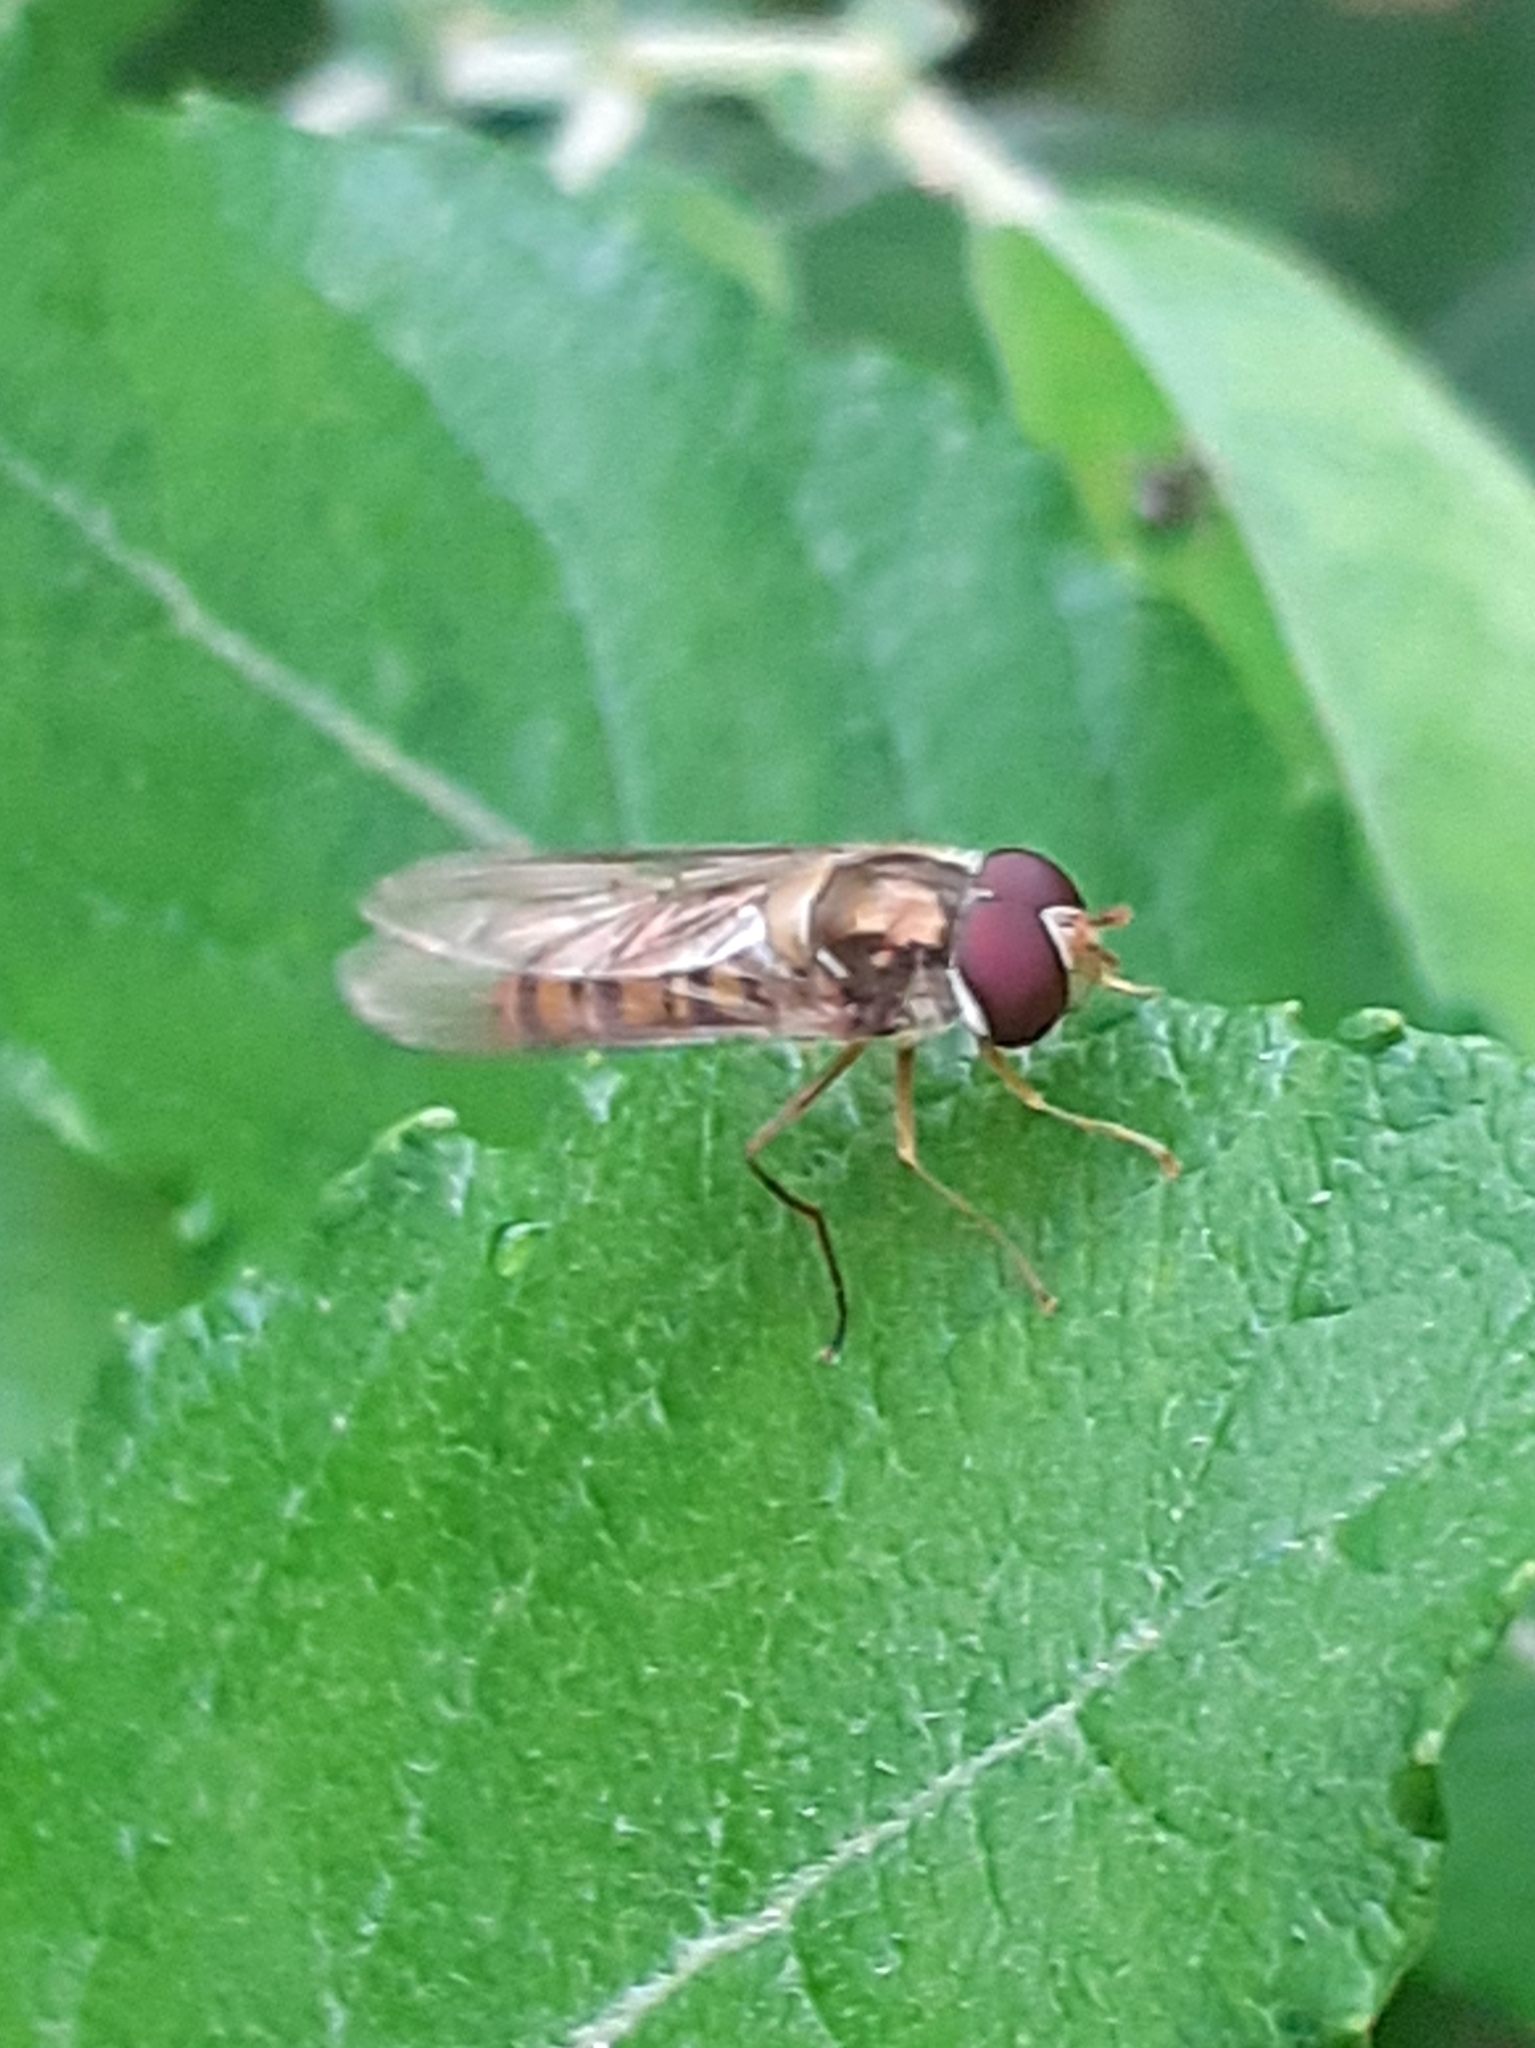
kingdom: Animalia
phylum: Arthropoda
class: Insecta
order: Diptera
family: Syrphidae
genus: Episyrphus
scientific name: Episyrphus balteatus
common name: Marmalade hoverfly
